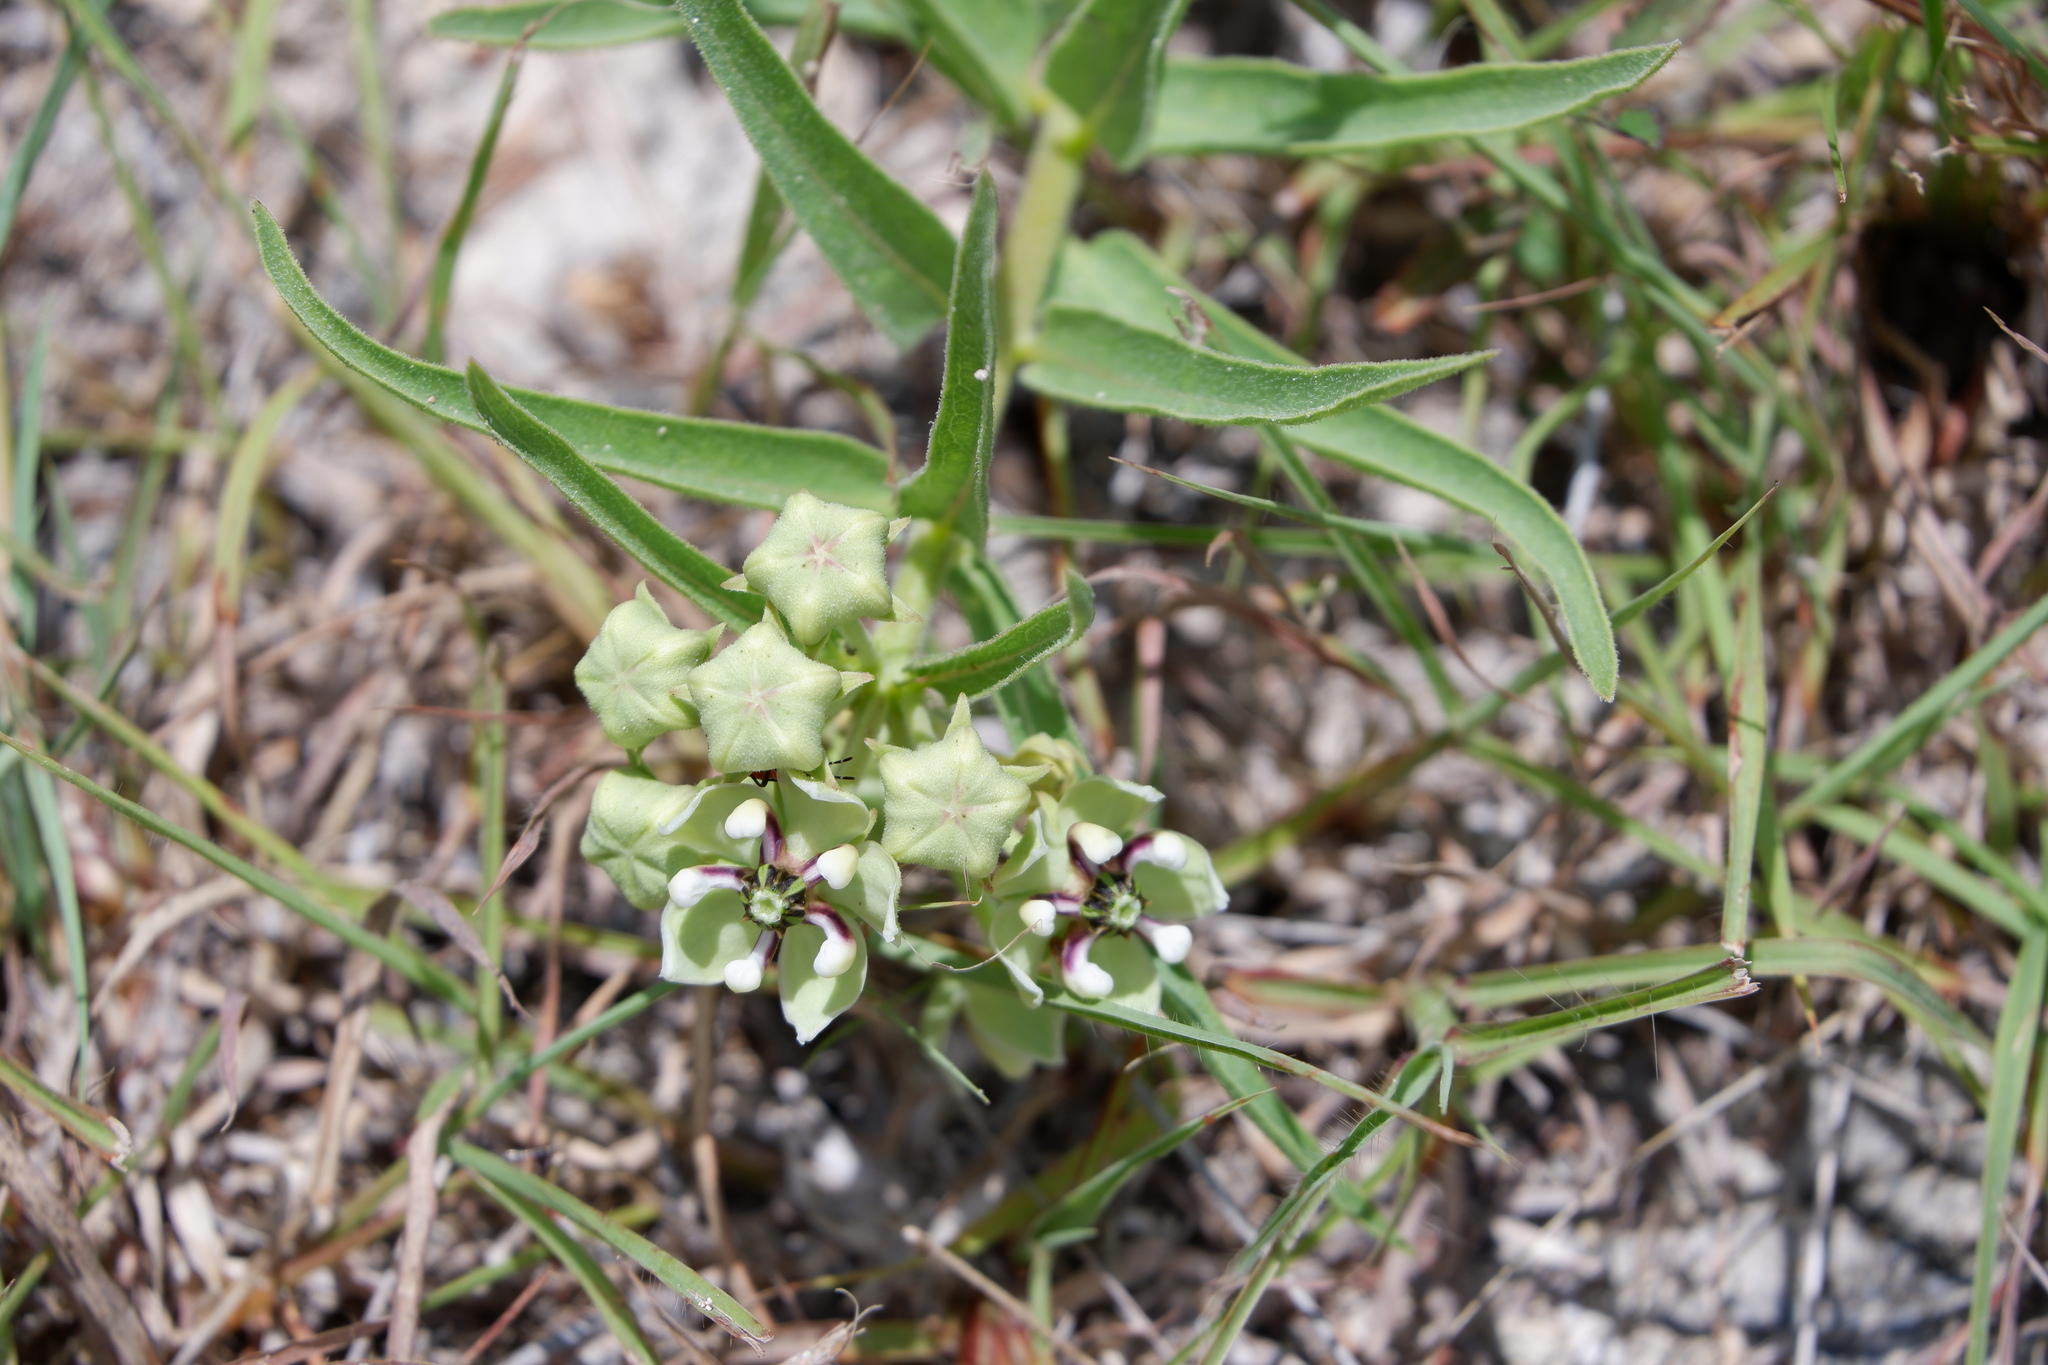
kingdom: Plantae
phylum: Tracheophyta
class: Magnoliopsida
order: Gentianales
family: Apocynaceae
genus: Asclepias
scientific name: Asclepias asperula
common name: Antelope horns
